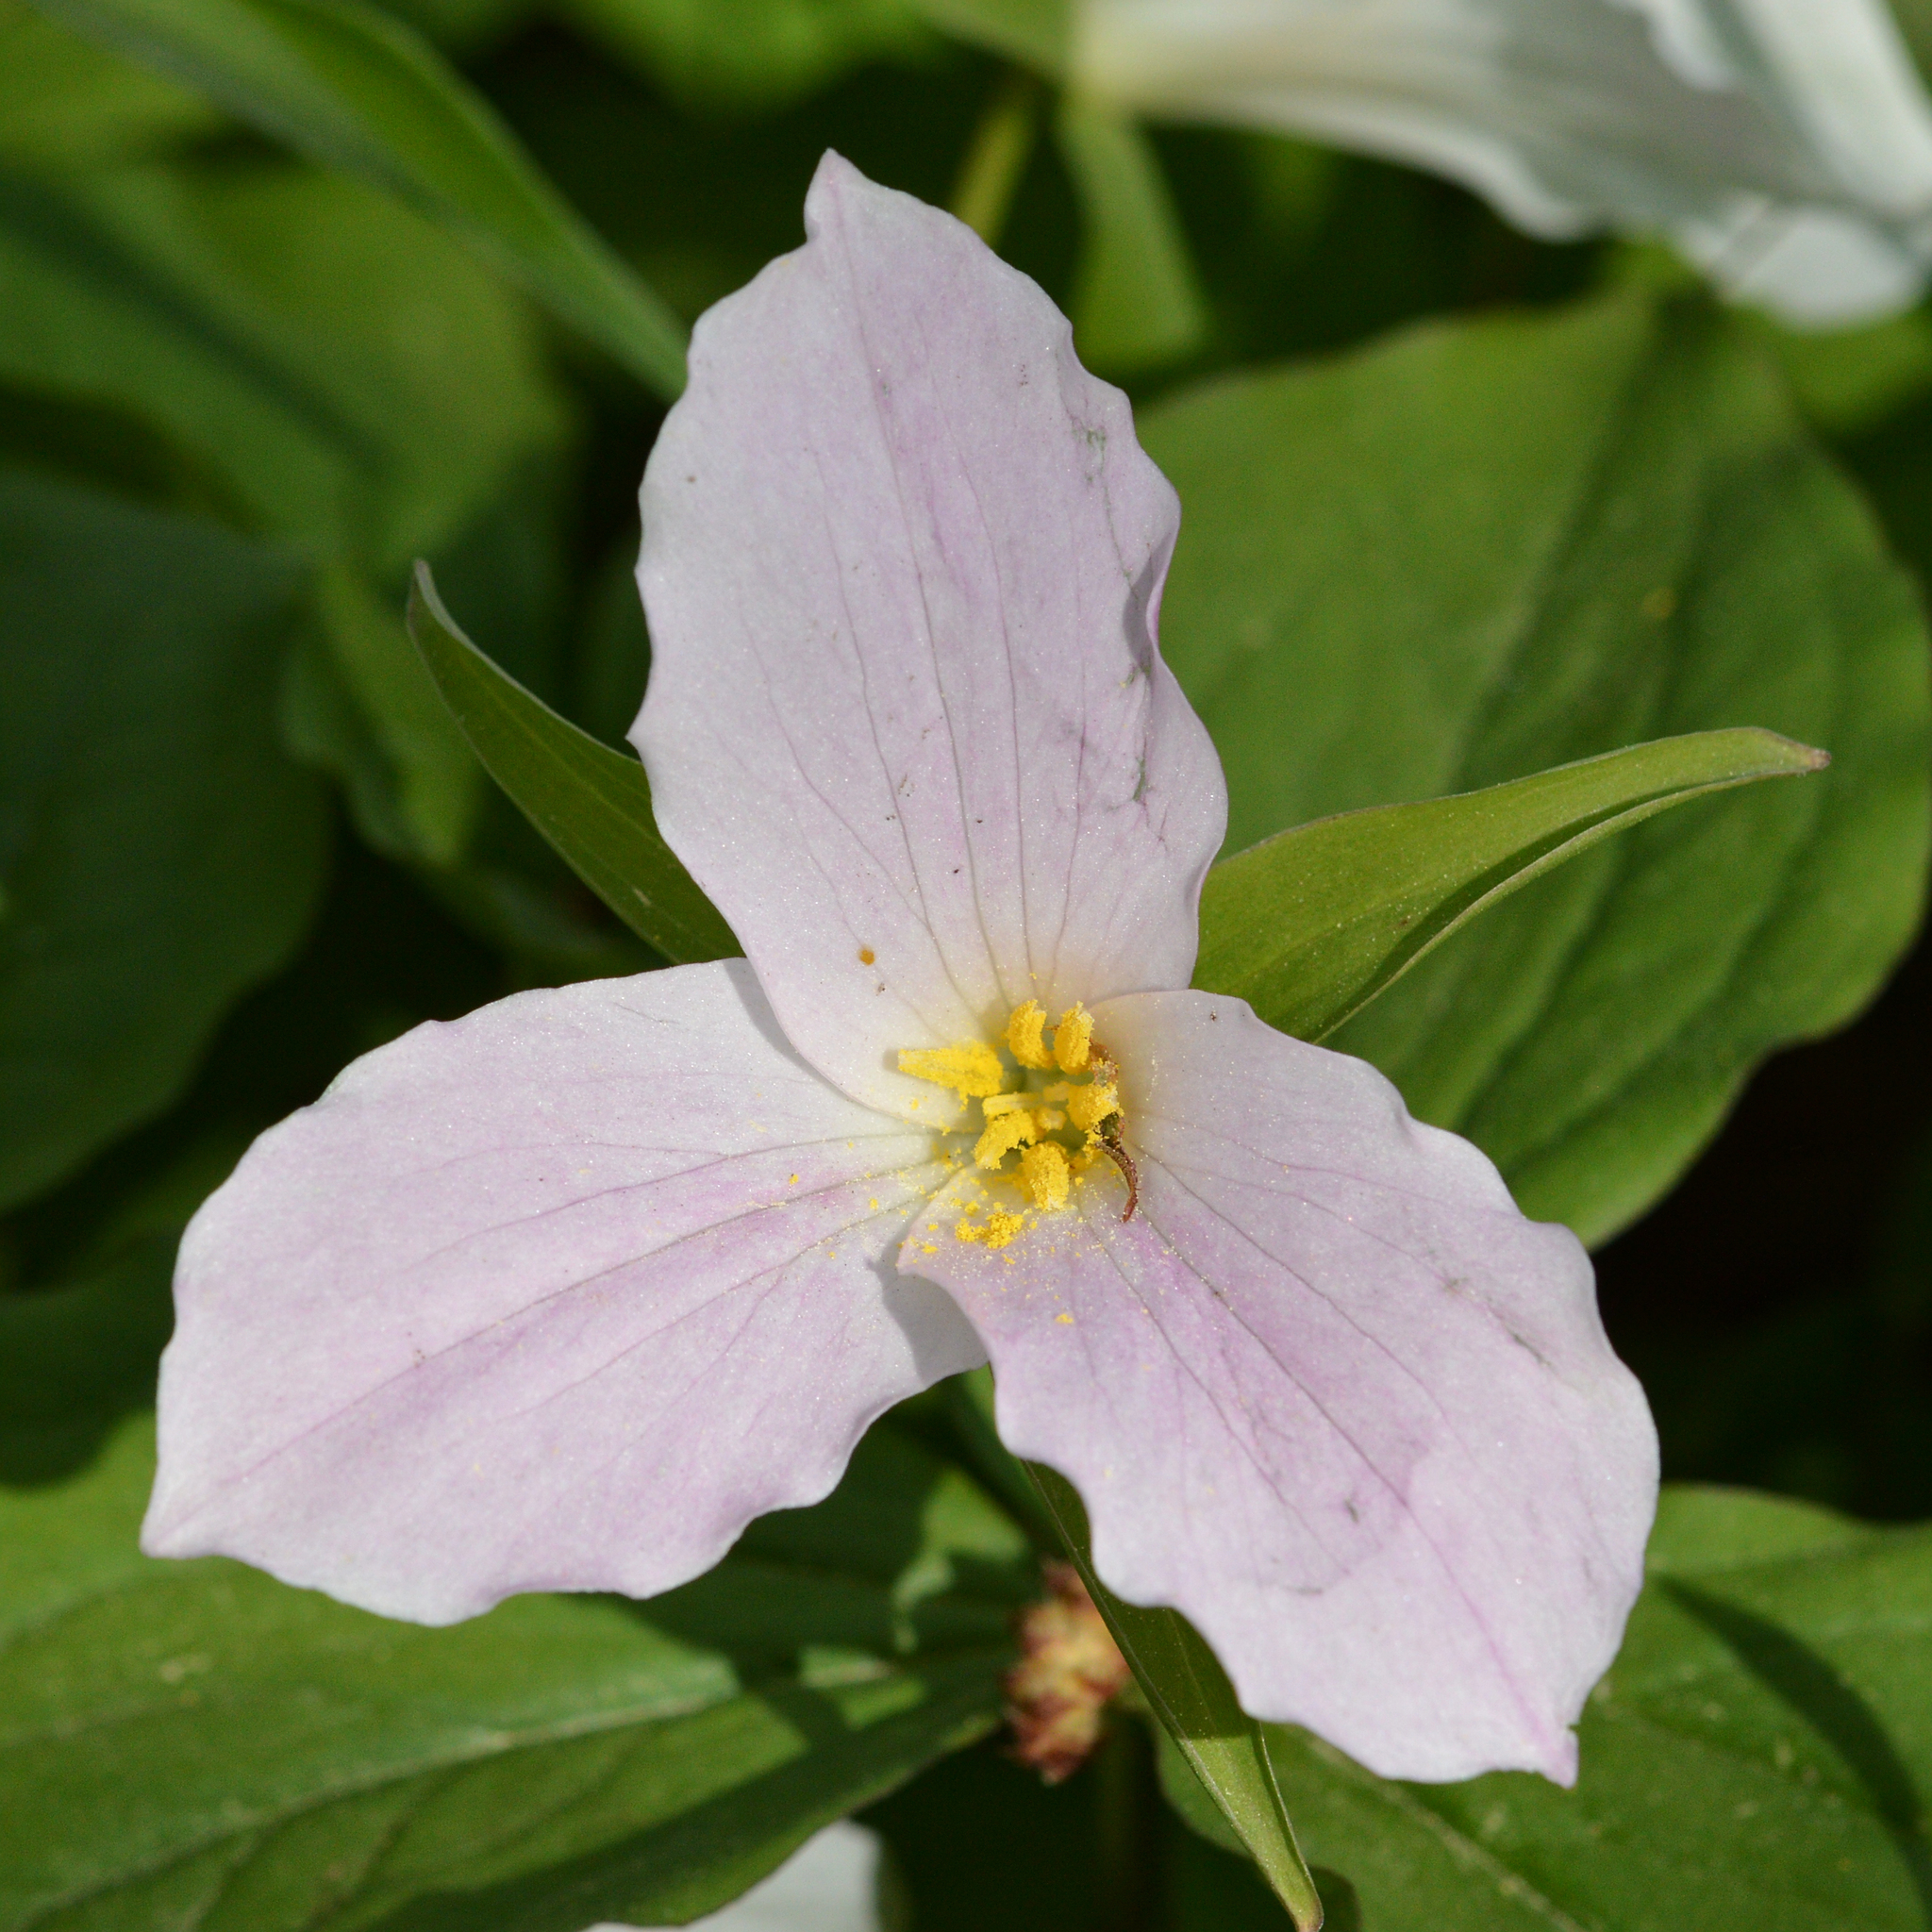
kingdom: Plantae
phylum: Tracheophyta
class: Liliopsida
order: Liliales
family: Melanthiaceae
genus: Trillium
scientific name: Trillium grandiflorum
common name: Great white trillium
